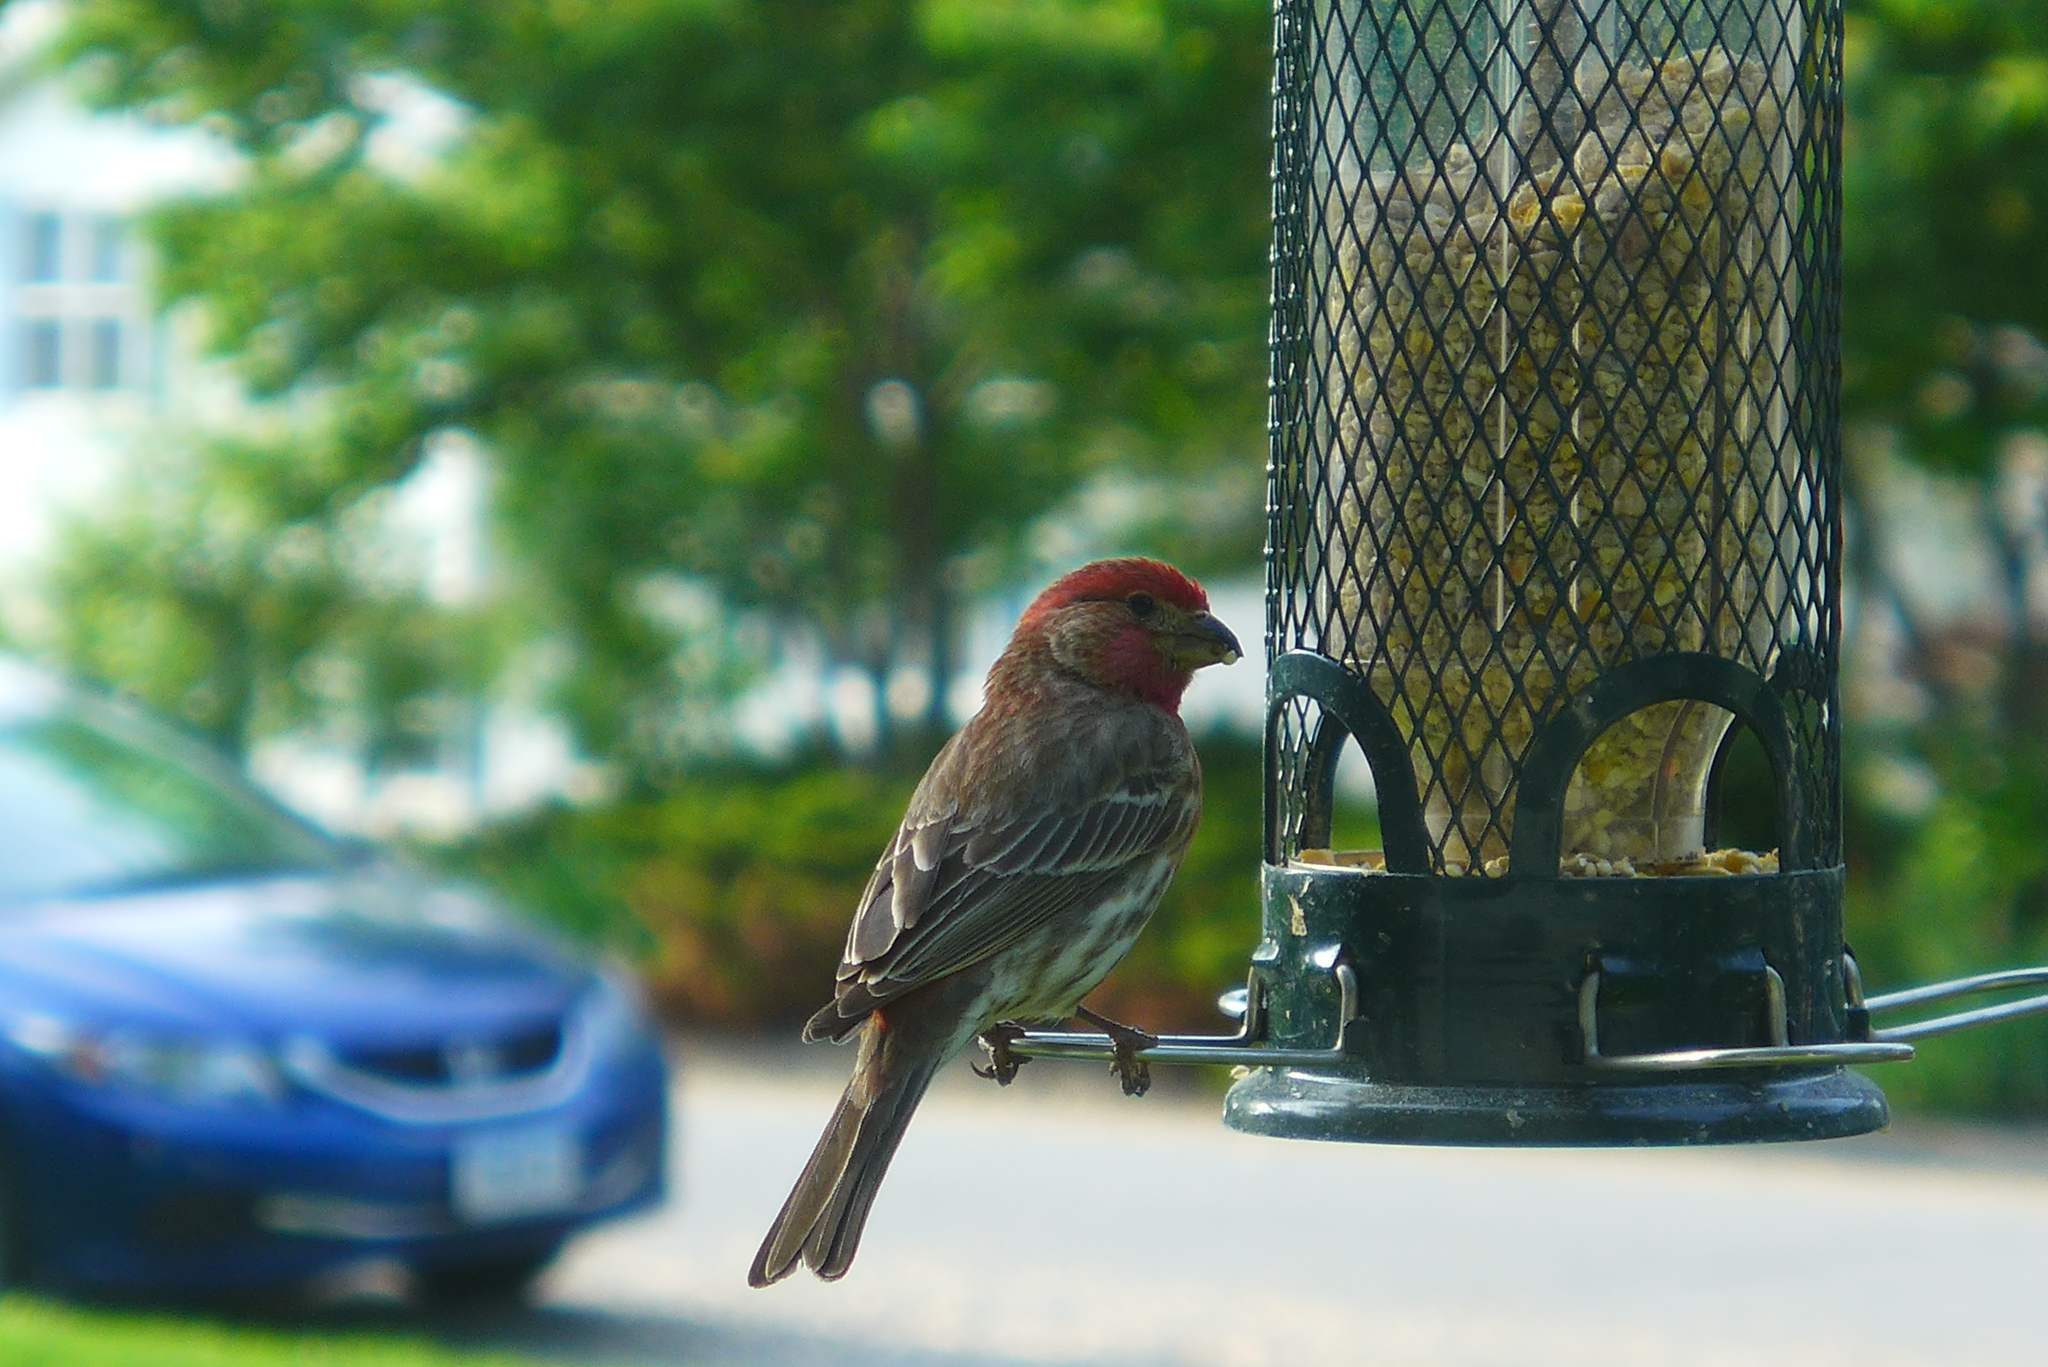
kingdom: Animalia
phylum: Chordata
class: Aves
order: Passeriformes
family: Fringillidae
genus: Haemorhous
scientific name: Haemorhous mexicanus
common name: House finch
